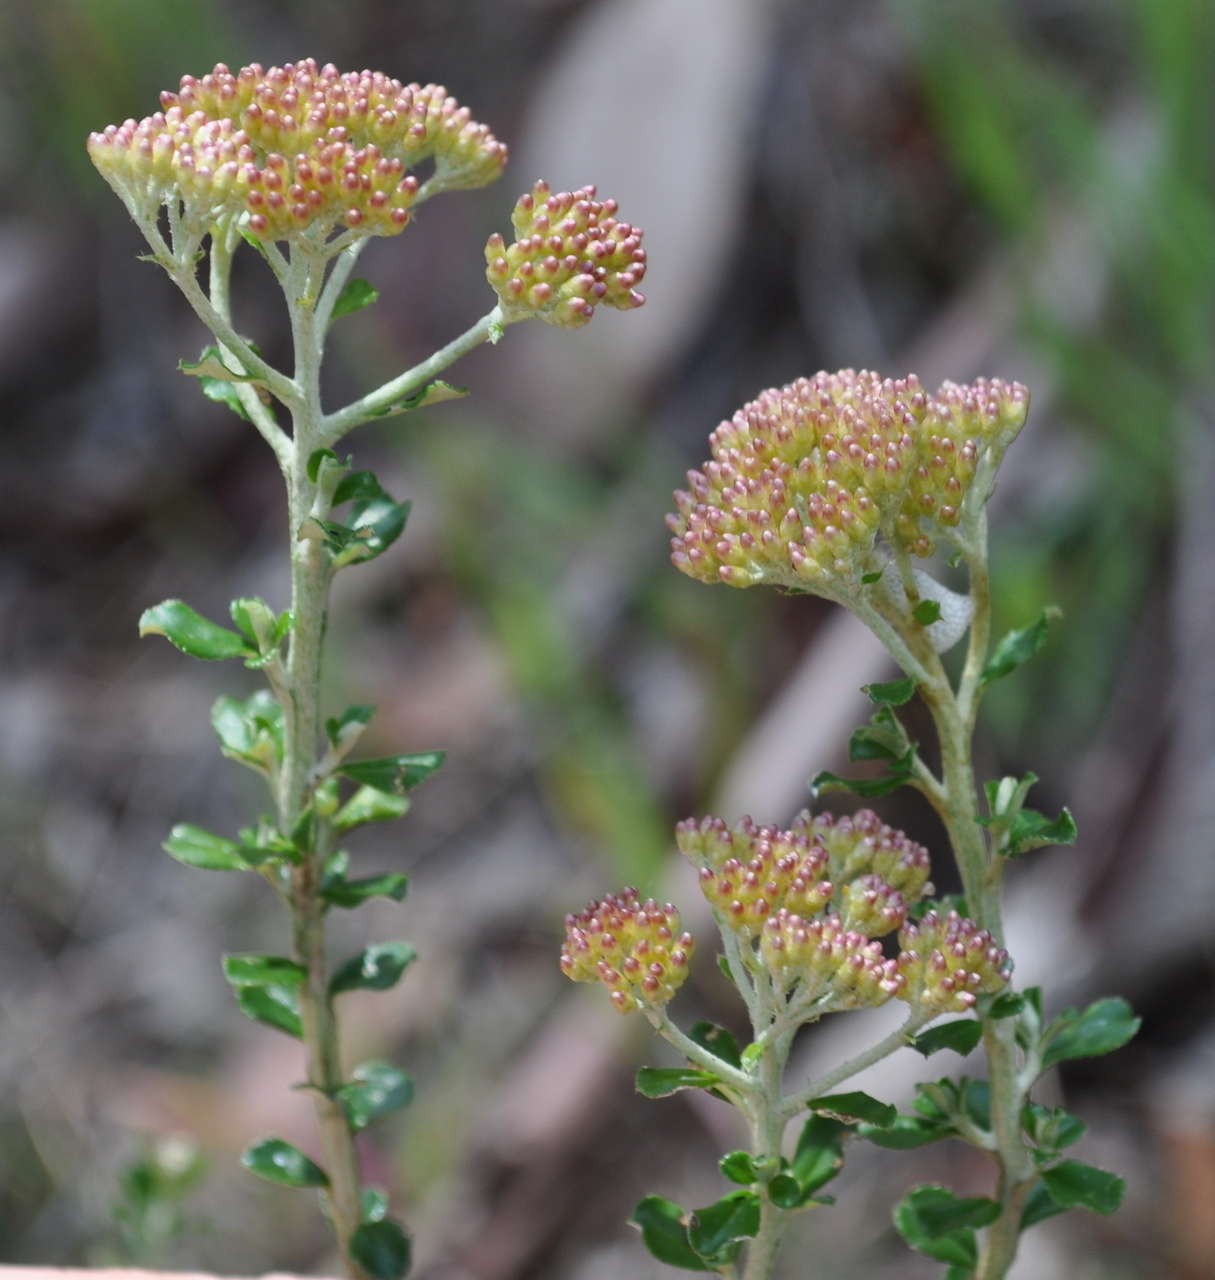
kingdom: Plantae
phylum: Tracheophyta
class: Magnoliopsida
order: Asterales
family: Asteraceae
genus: Ozothamnus
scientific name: Ozothamnus obcordatus
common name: Grey everlasting
